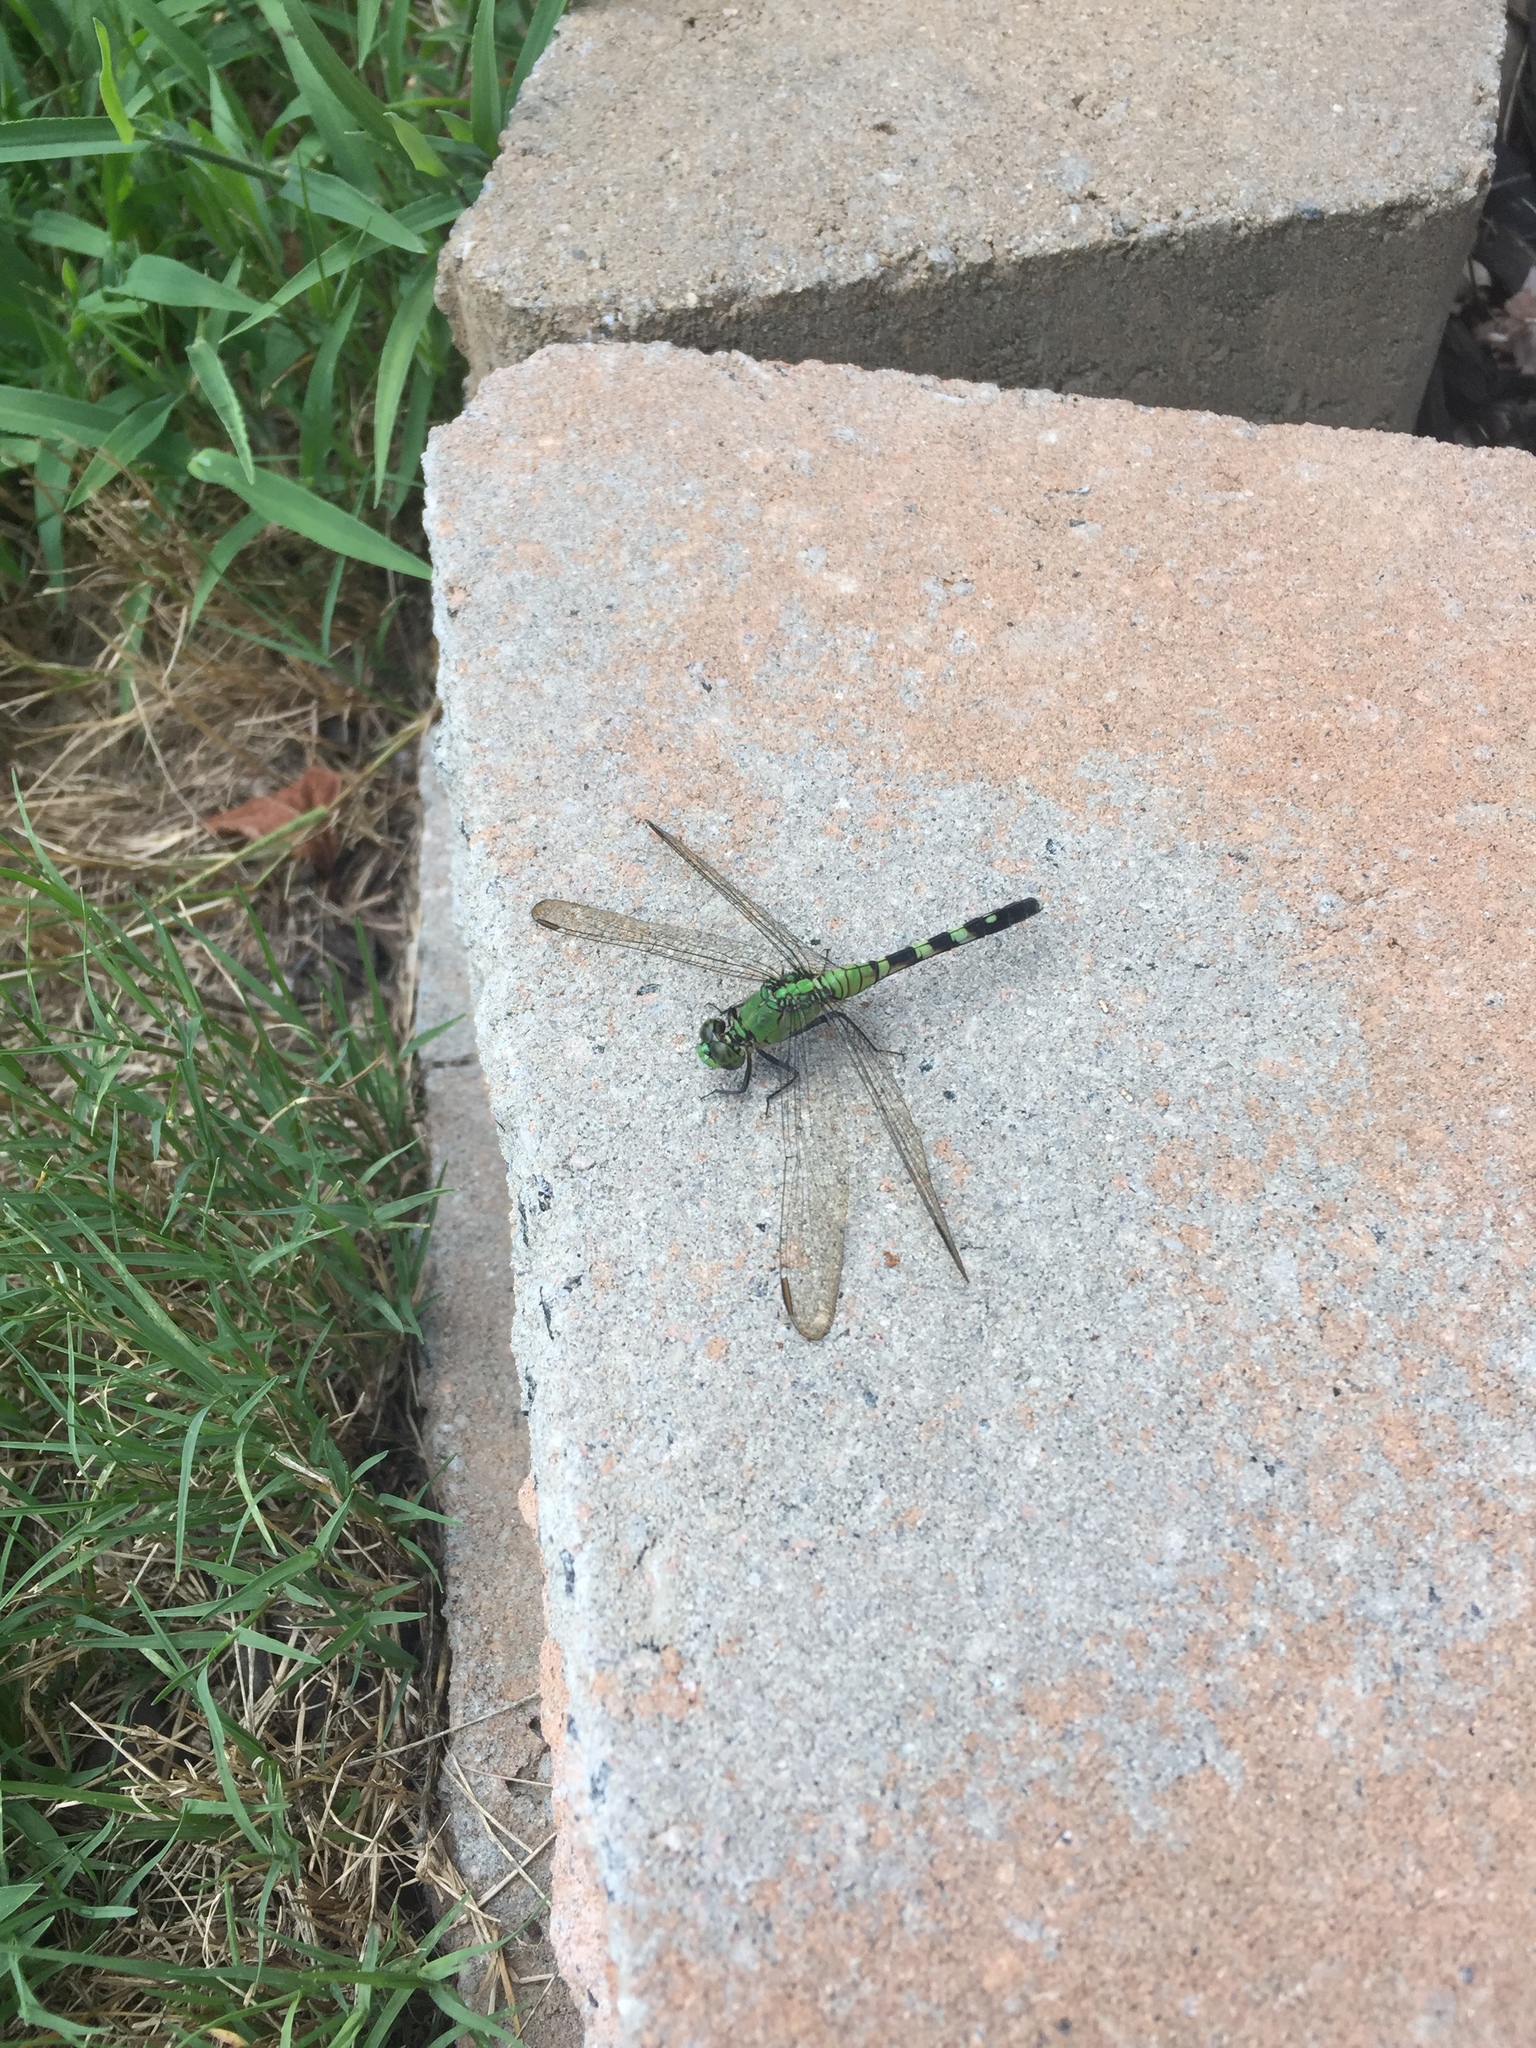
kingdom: Animalia
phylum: Arthropoda
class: Insecta
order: Odonata
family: Libellulidae
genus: Erythemis
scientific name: Erythemis simplicicollis
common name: Eastern pondhawk
